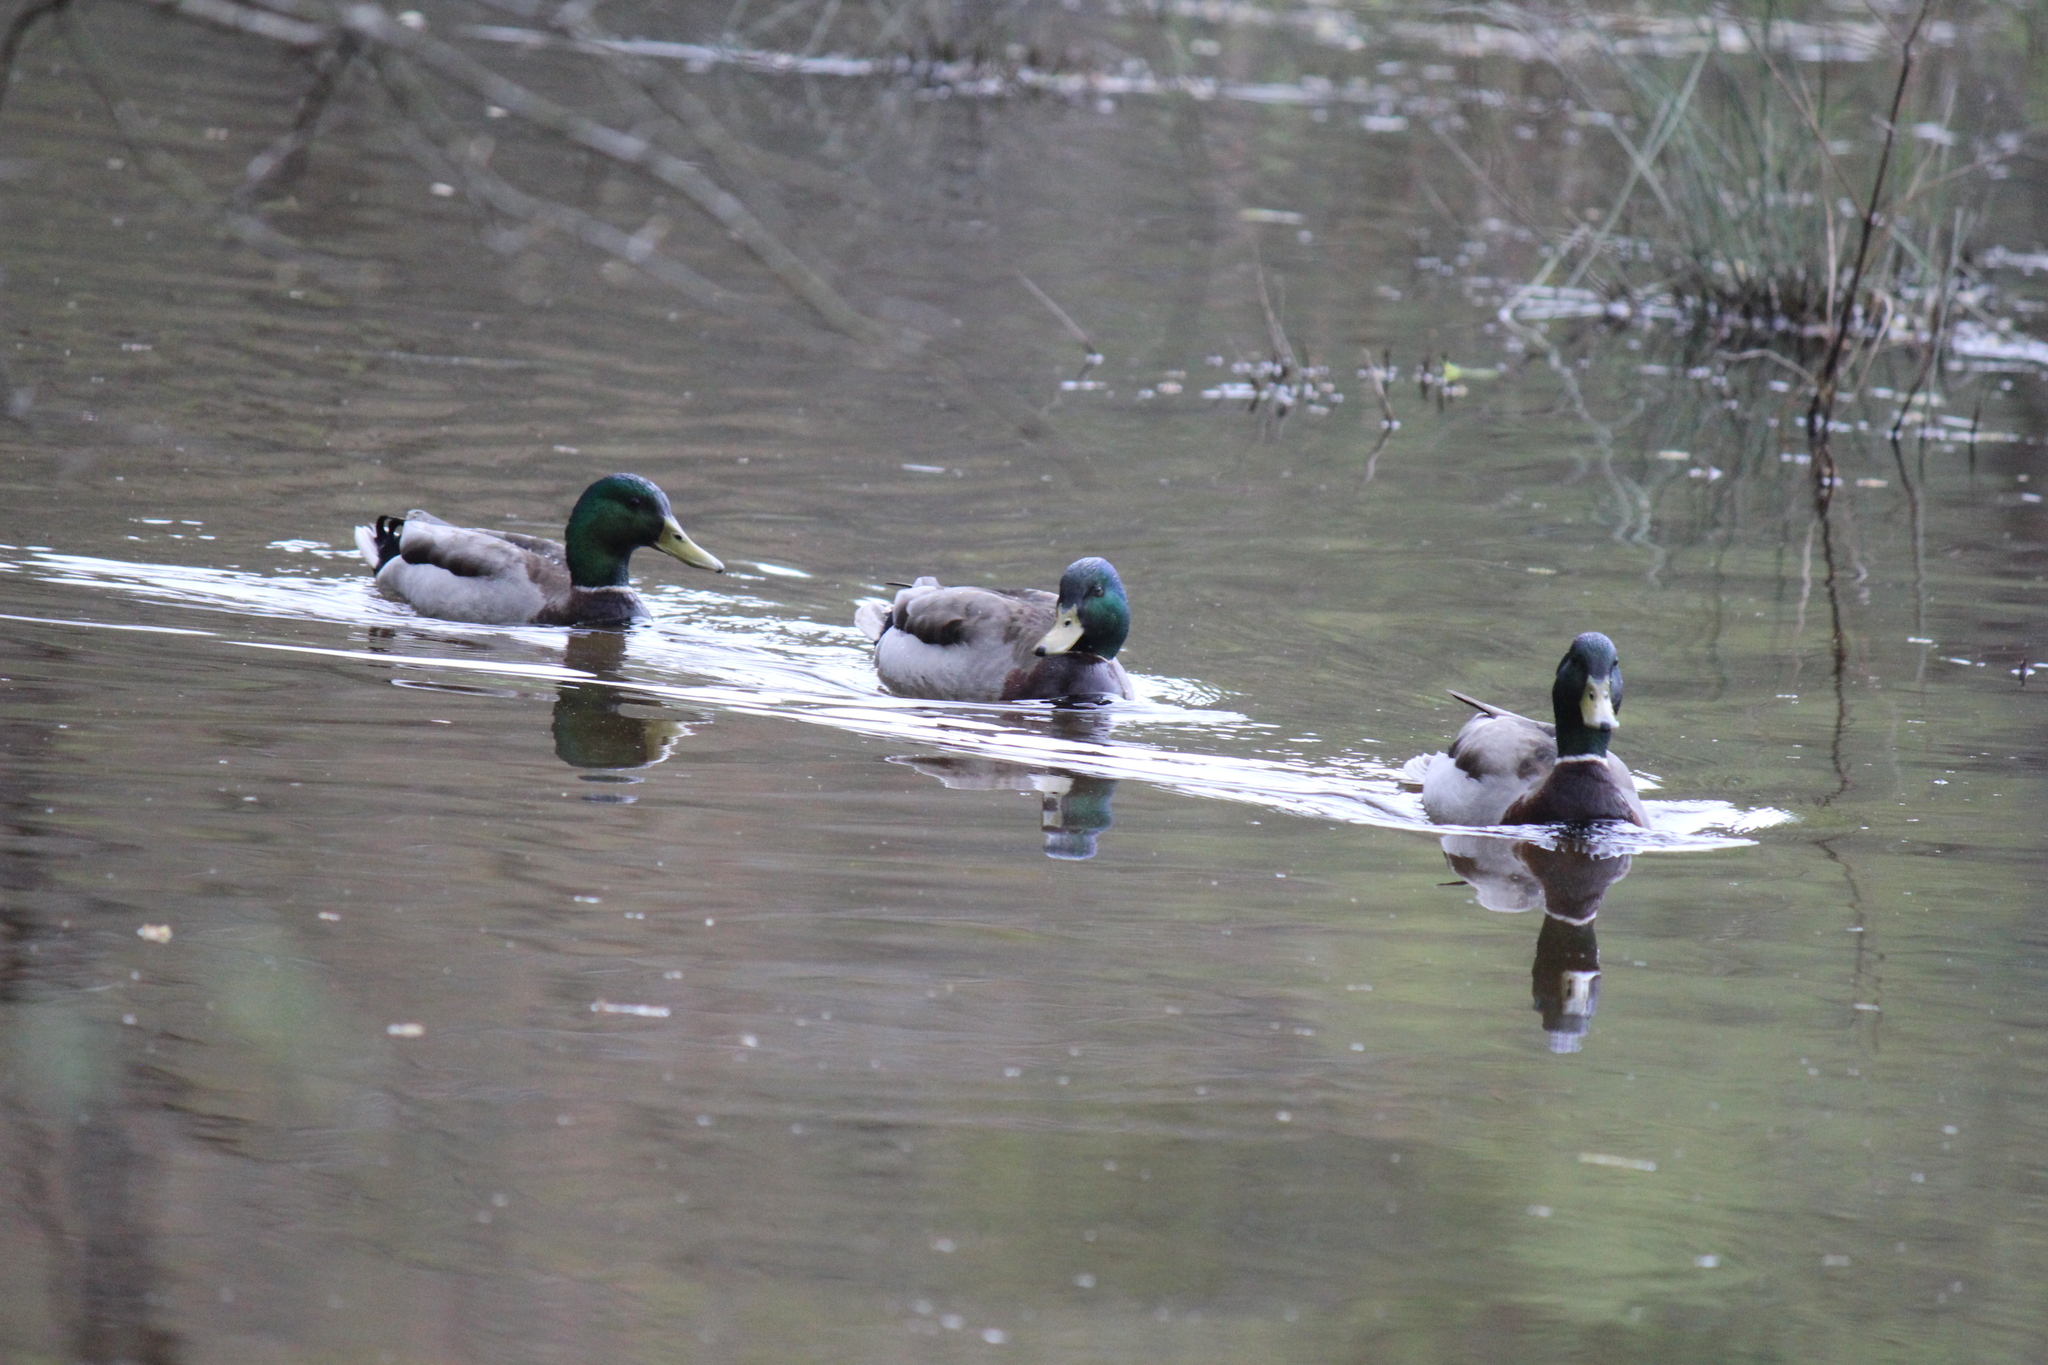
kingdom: Animalia
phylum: Chordata
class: Aves
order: Anseriformes
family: Anatidae
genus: Anas
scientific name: Anas platyrhynchos
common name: Mallard
